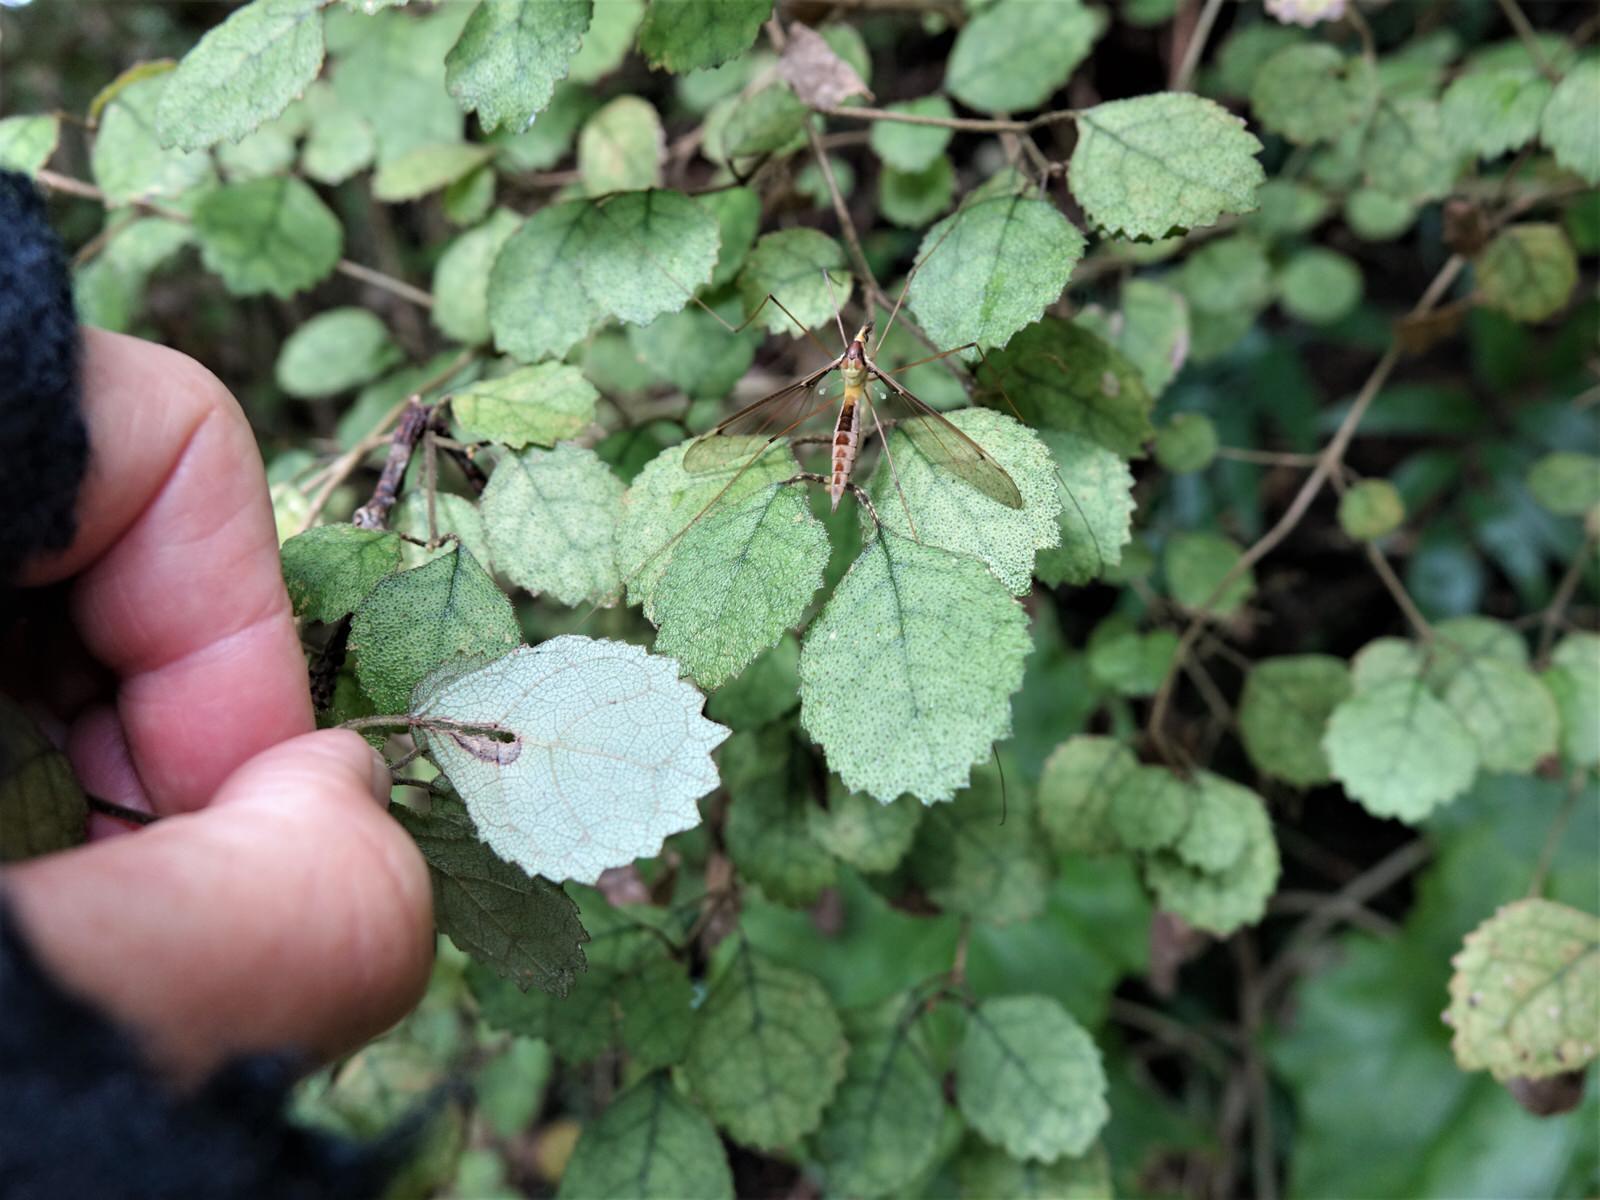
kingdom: Plantae
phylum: Tracheophyta
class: Magnoliopsida
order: Lamiales
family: Gesneriaceae
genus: Rhabdothamnus
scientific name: Rhabdothamnus solandri
